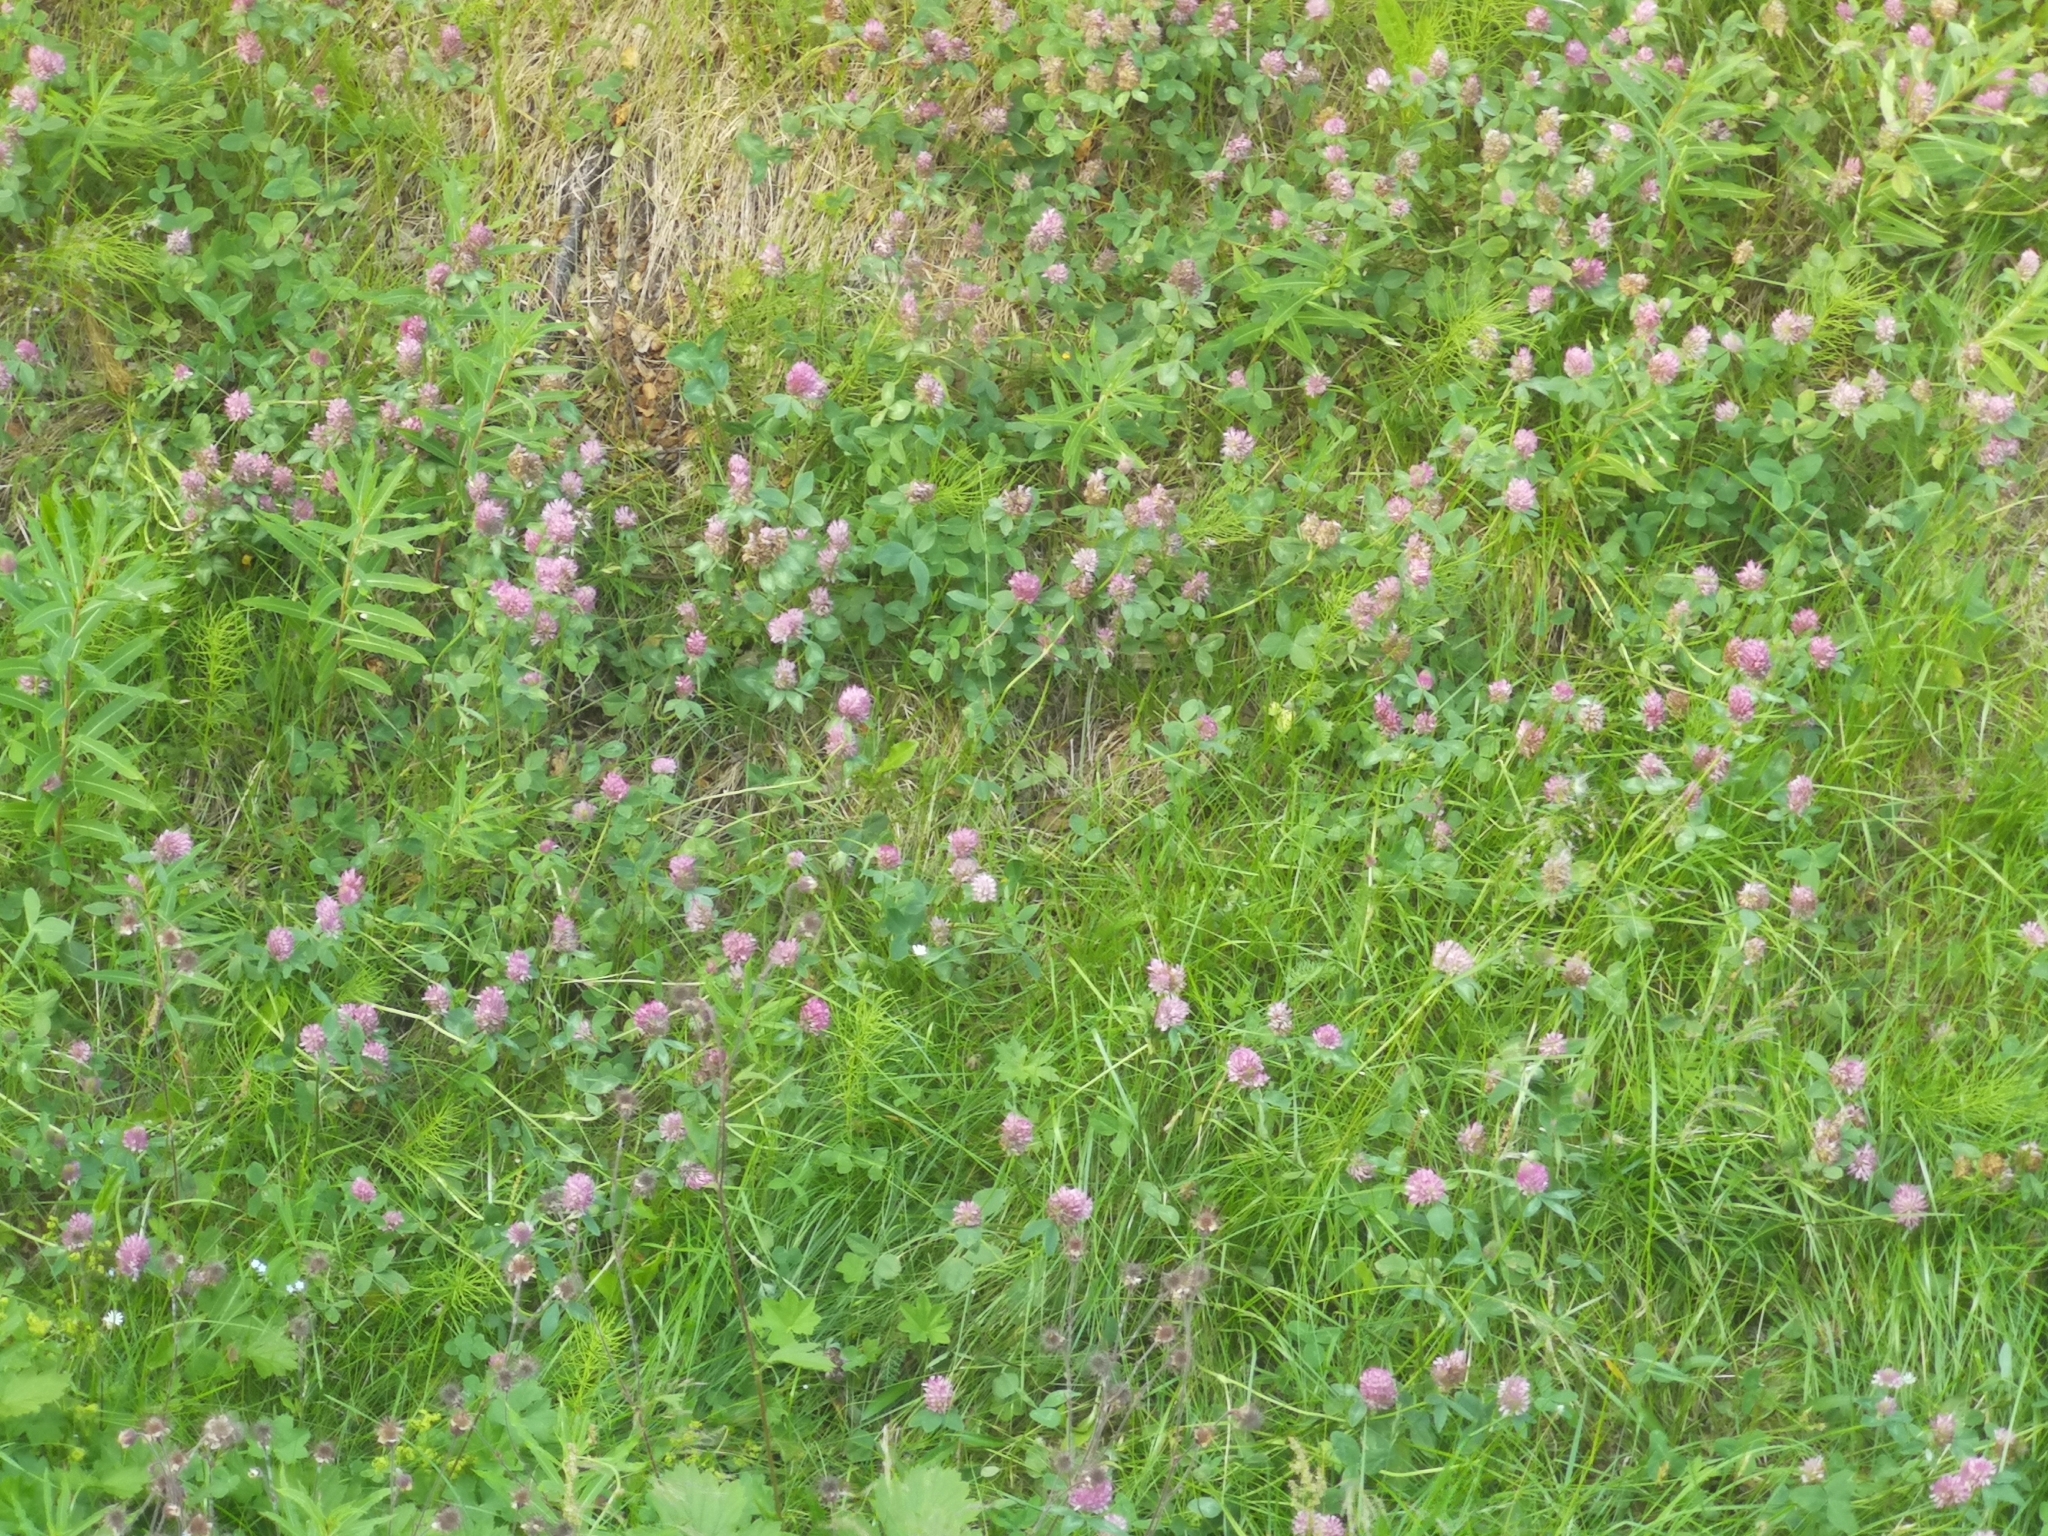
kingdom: Plantae
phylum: Tracheophyta
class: Magnoliopsida
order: Fabales
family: Fabaceae
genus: Trifolium
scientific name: Trifolium pratense
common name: Red clover
